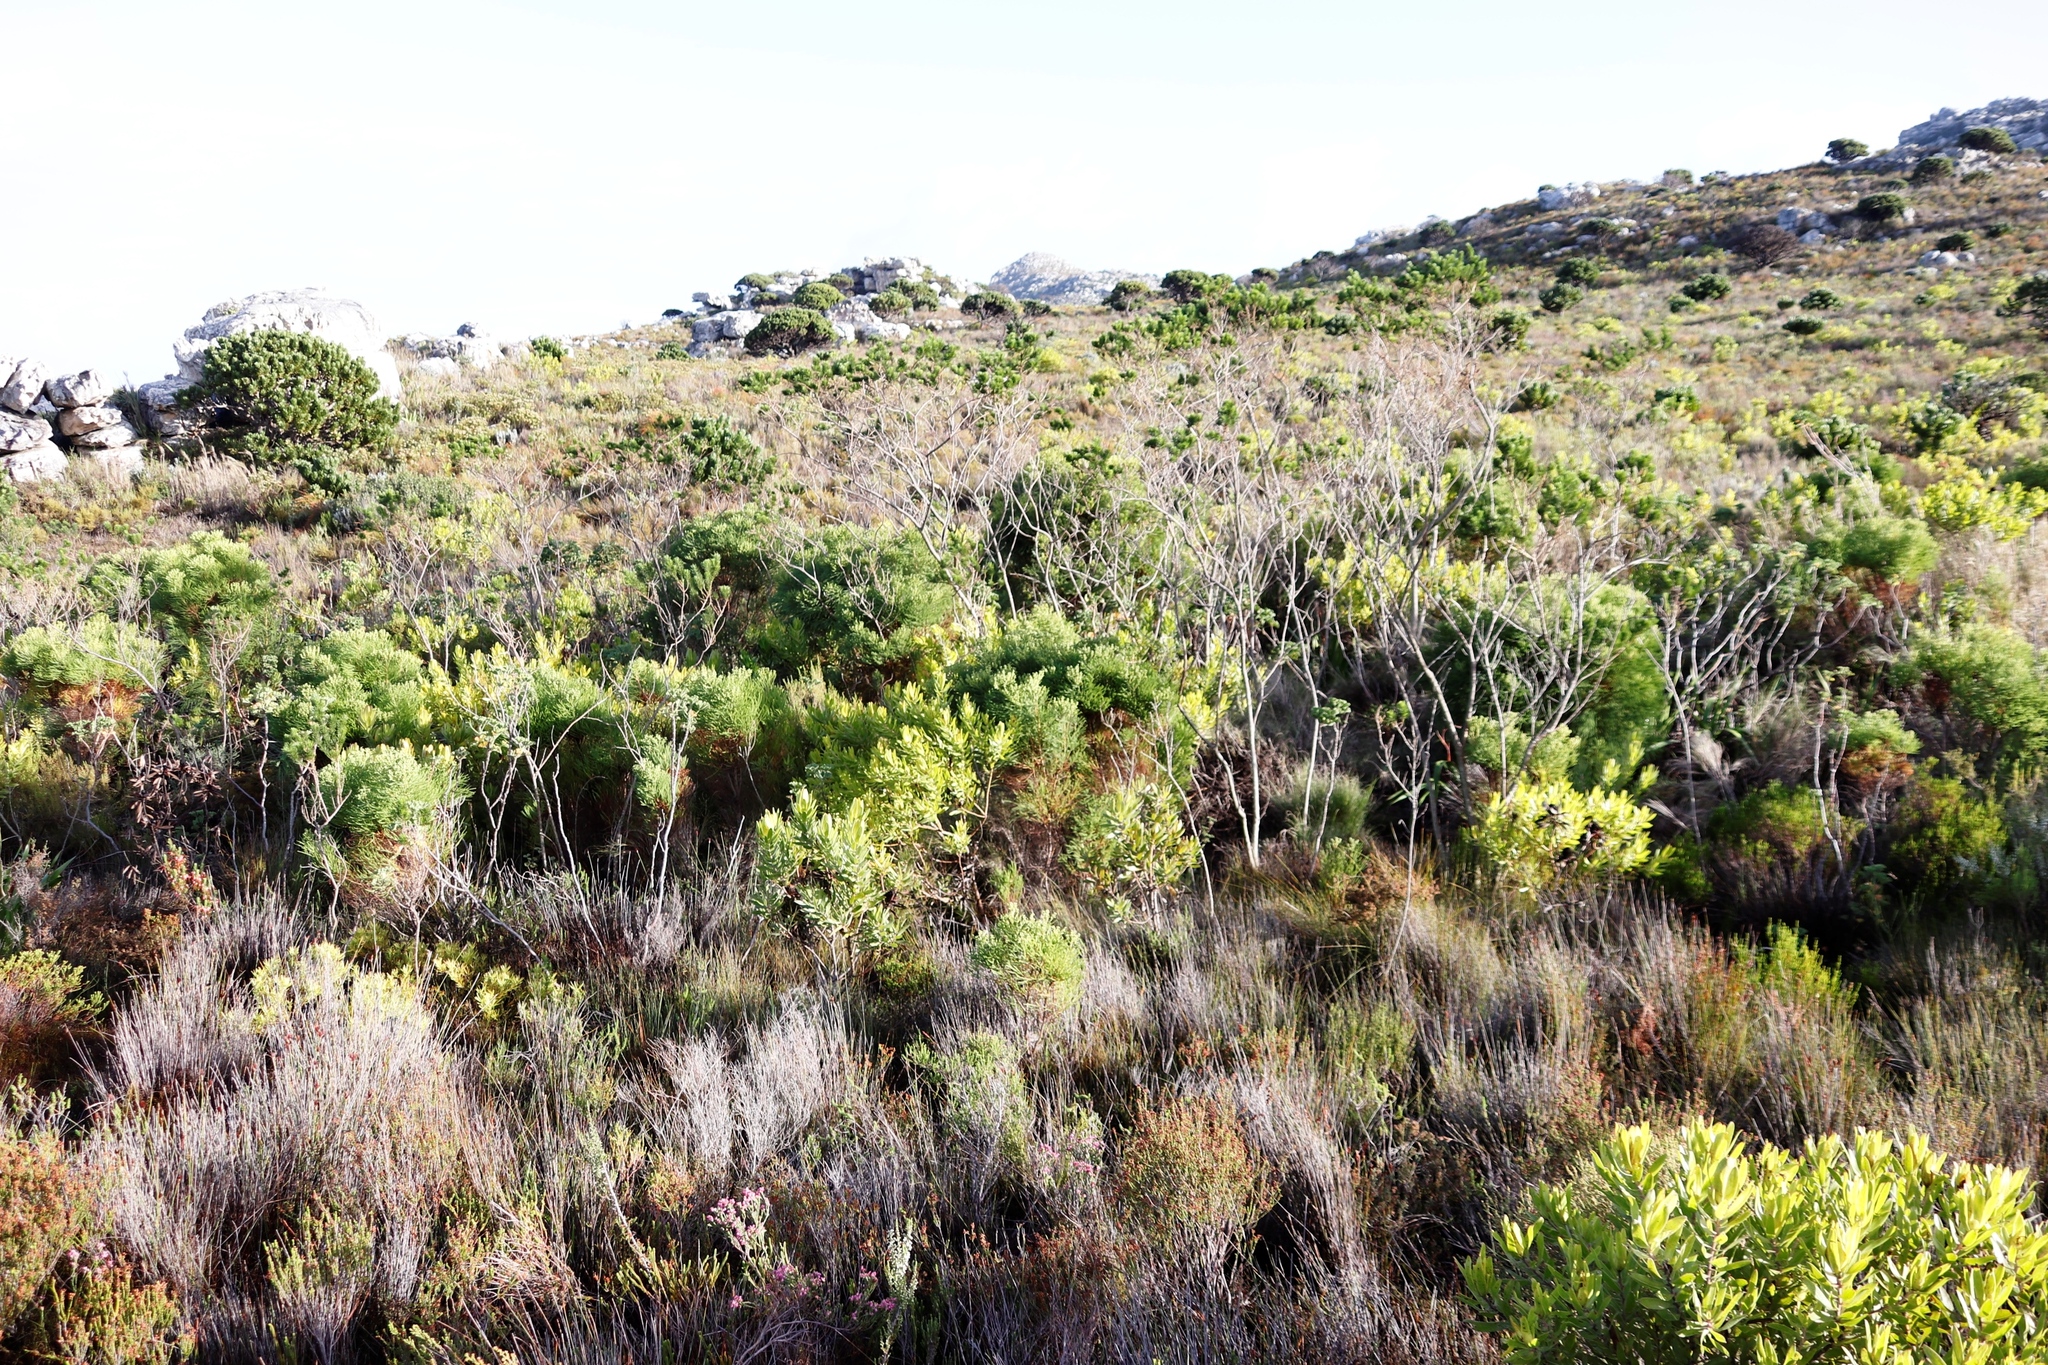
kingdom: Plantae
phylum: Tracheophyta
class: Magnoliopsida
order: Bruniales
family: Bruniaceae
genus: Berzelia
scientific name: Berzelia lanuginosa
